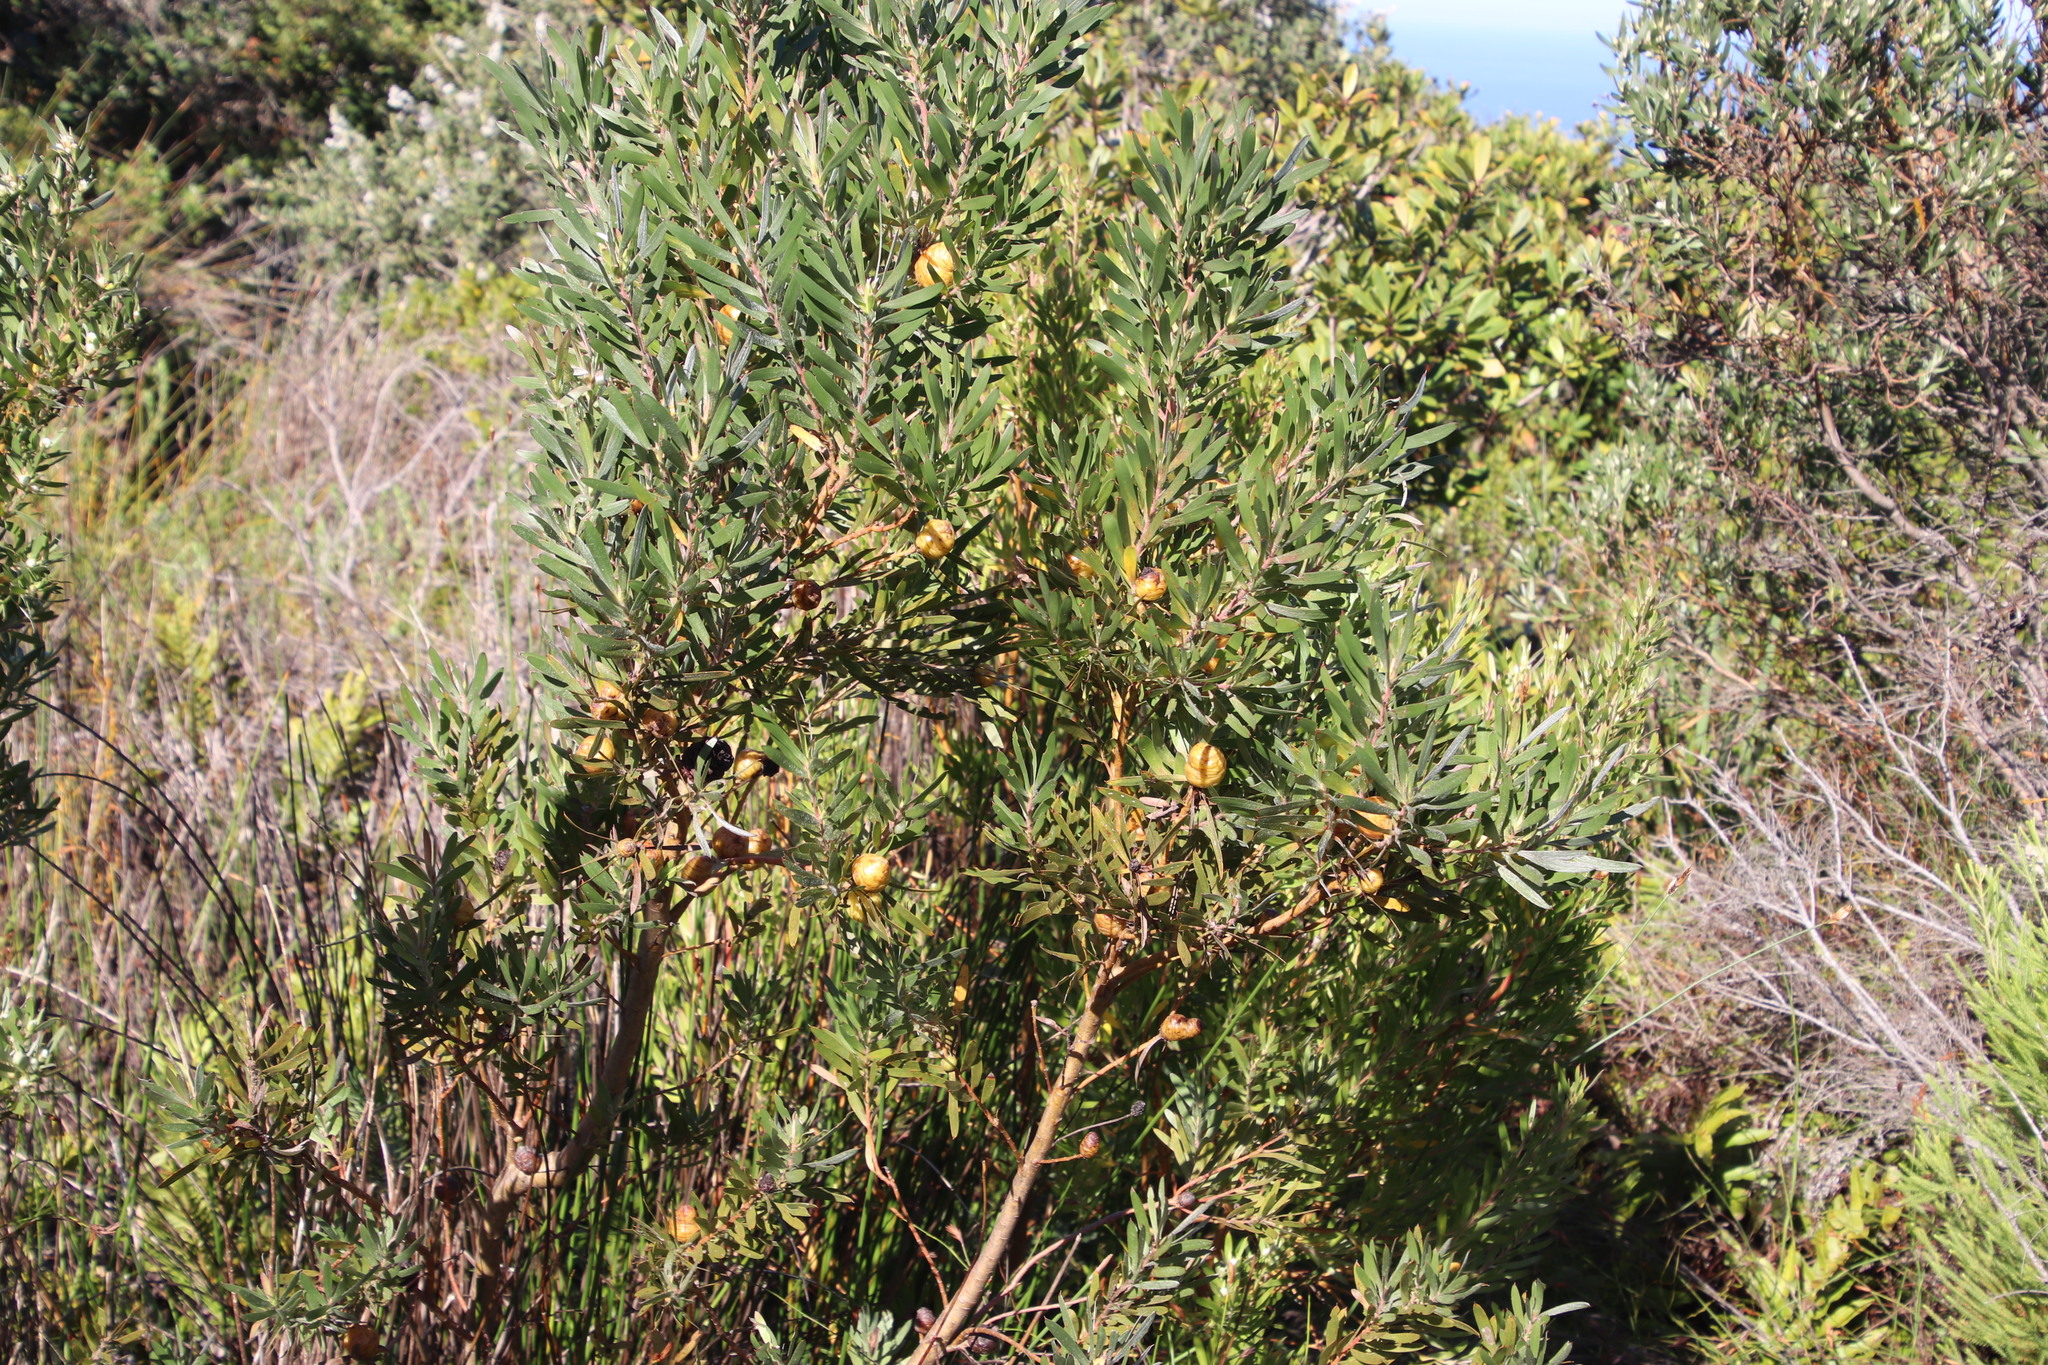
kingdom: Plantae
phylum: Tracheophyta
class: Magnoliopsida
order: Proteales
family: Proteaceae
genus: Leucadendron
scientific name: Leucadendron macowanii
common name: Acacia-leaf conebush
